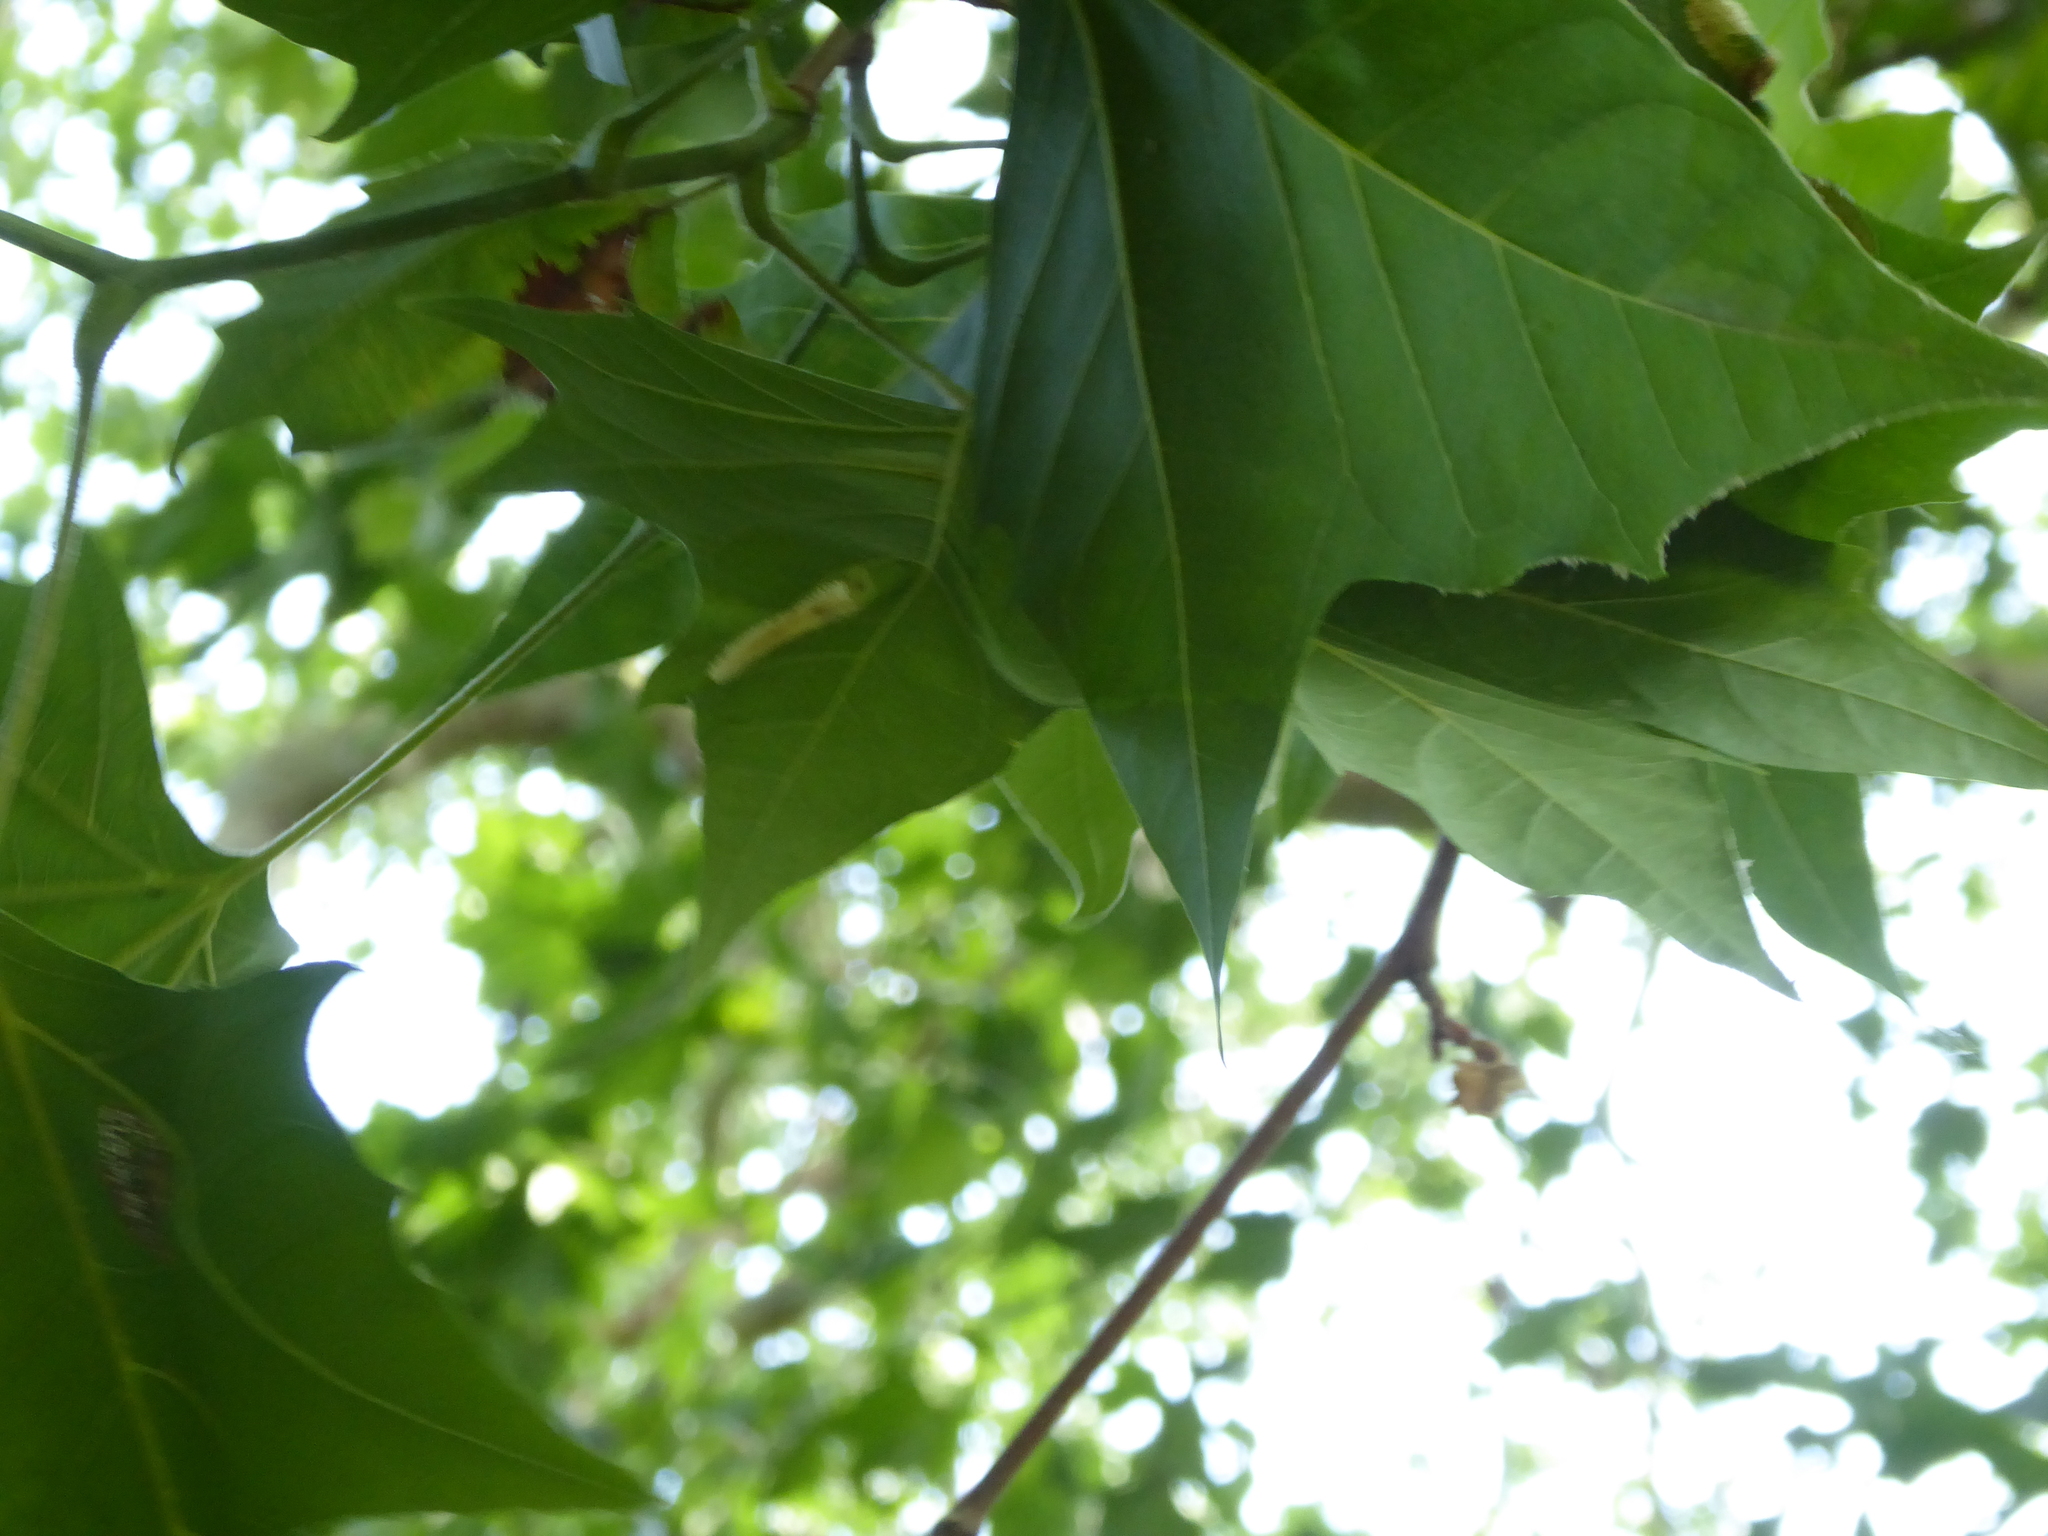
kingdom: Animalia
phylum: Arthropoda
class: Insecta
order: Lepidoptera
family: Gracillariidae
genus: Phyllonorycter
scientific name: Phyllonorycter platani
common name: London midget
